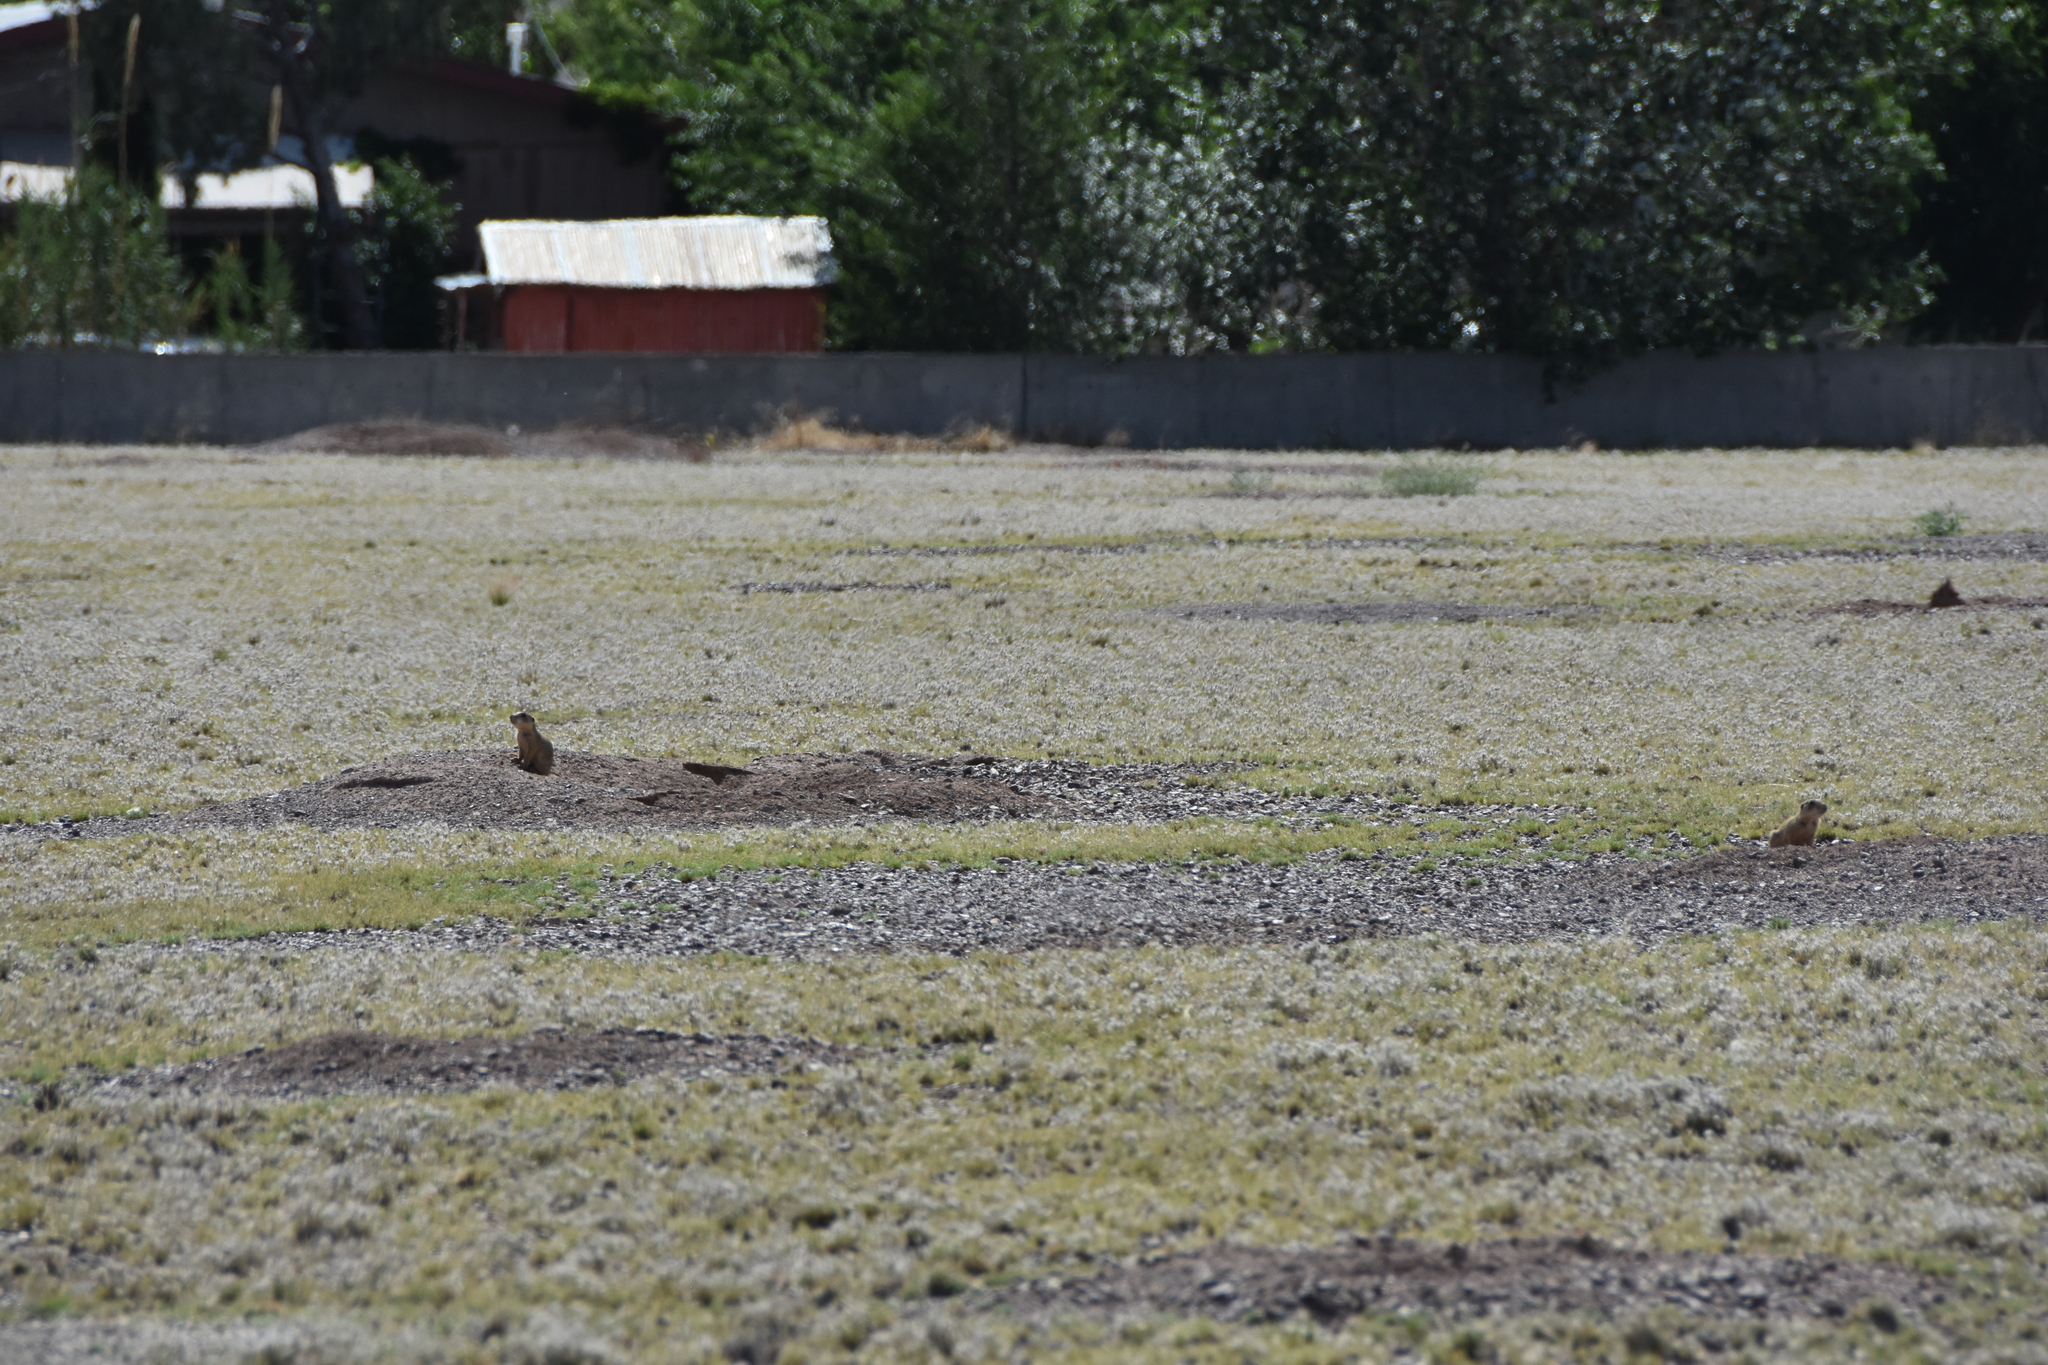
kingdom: Animalia
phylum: Chordata
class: Mammalia
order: Rodentia
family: Sciuridae
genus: Cynomys
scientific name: Cynomys gunnisoni
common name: Gunnison's prairie dog
